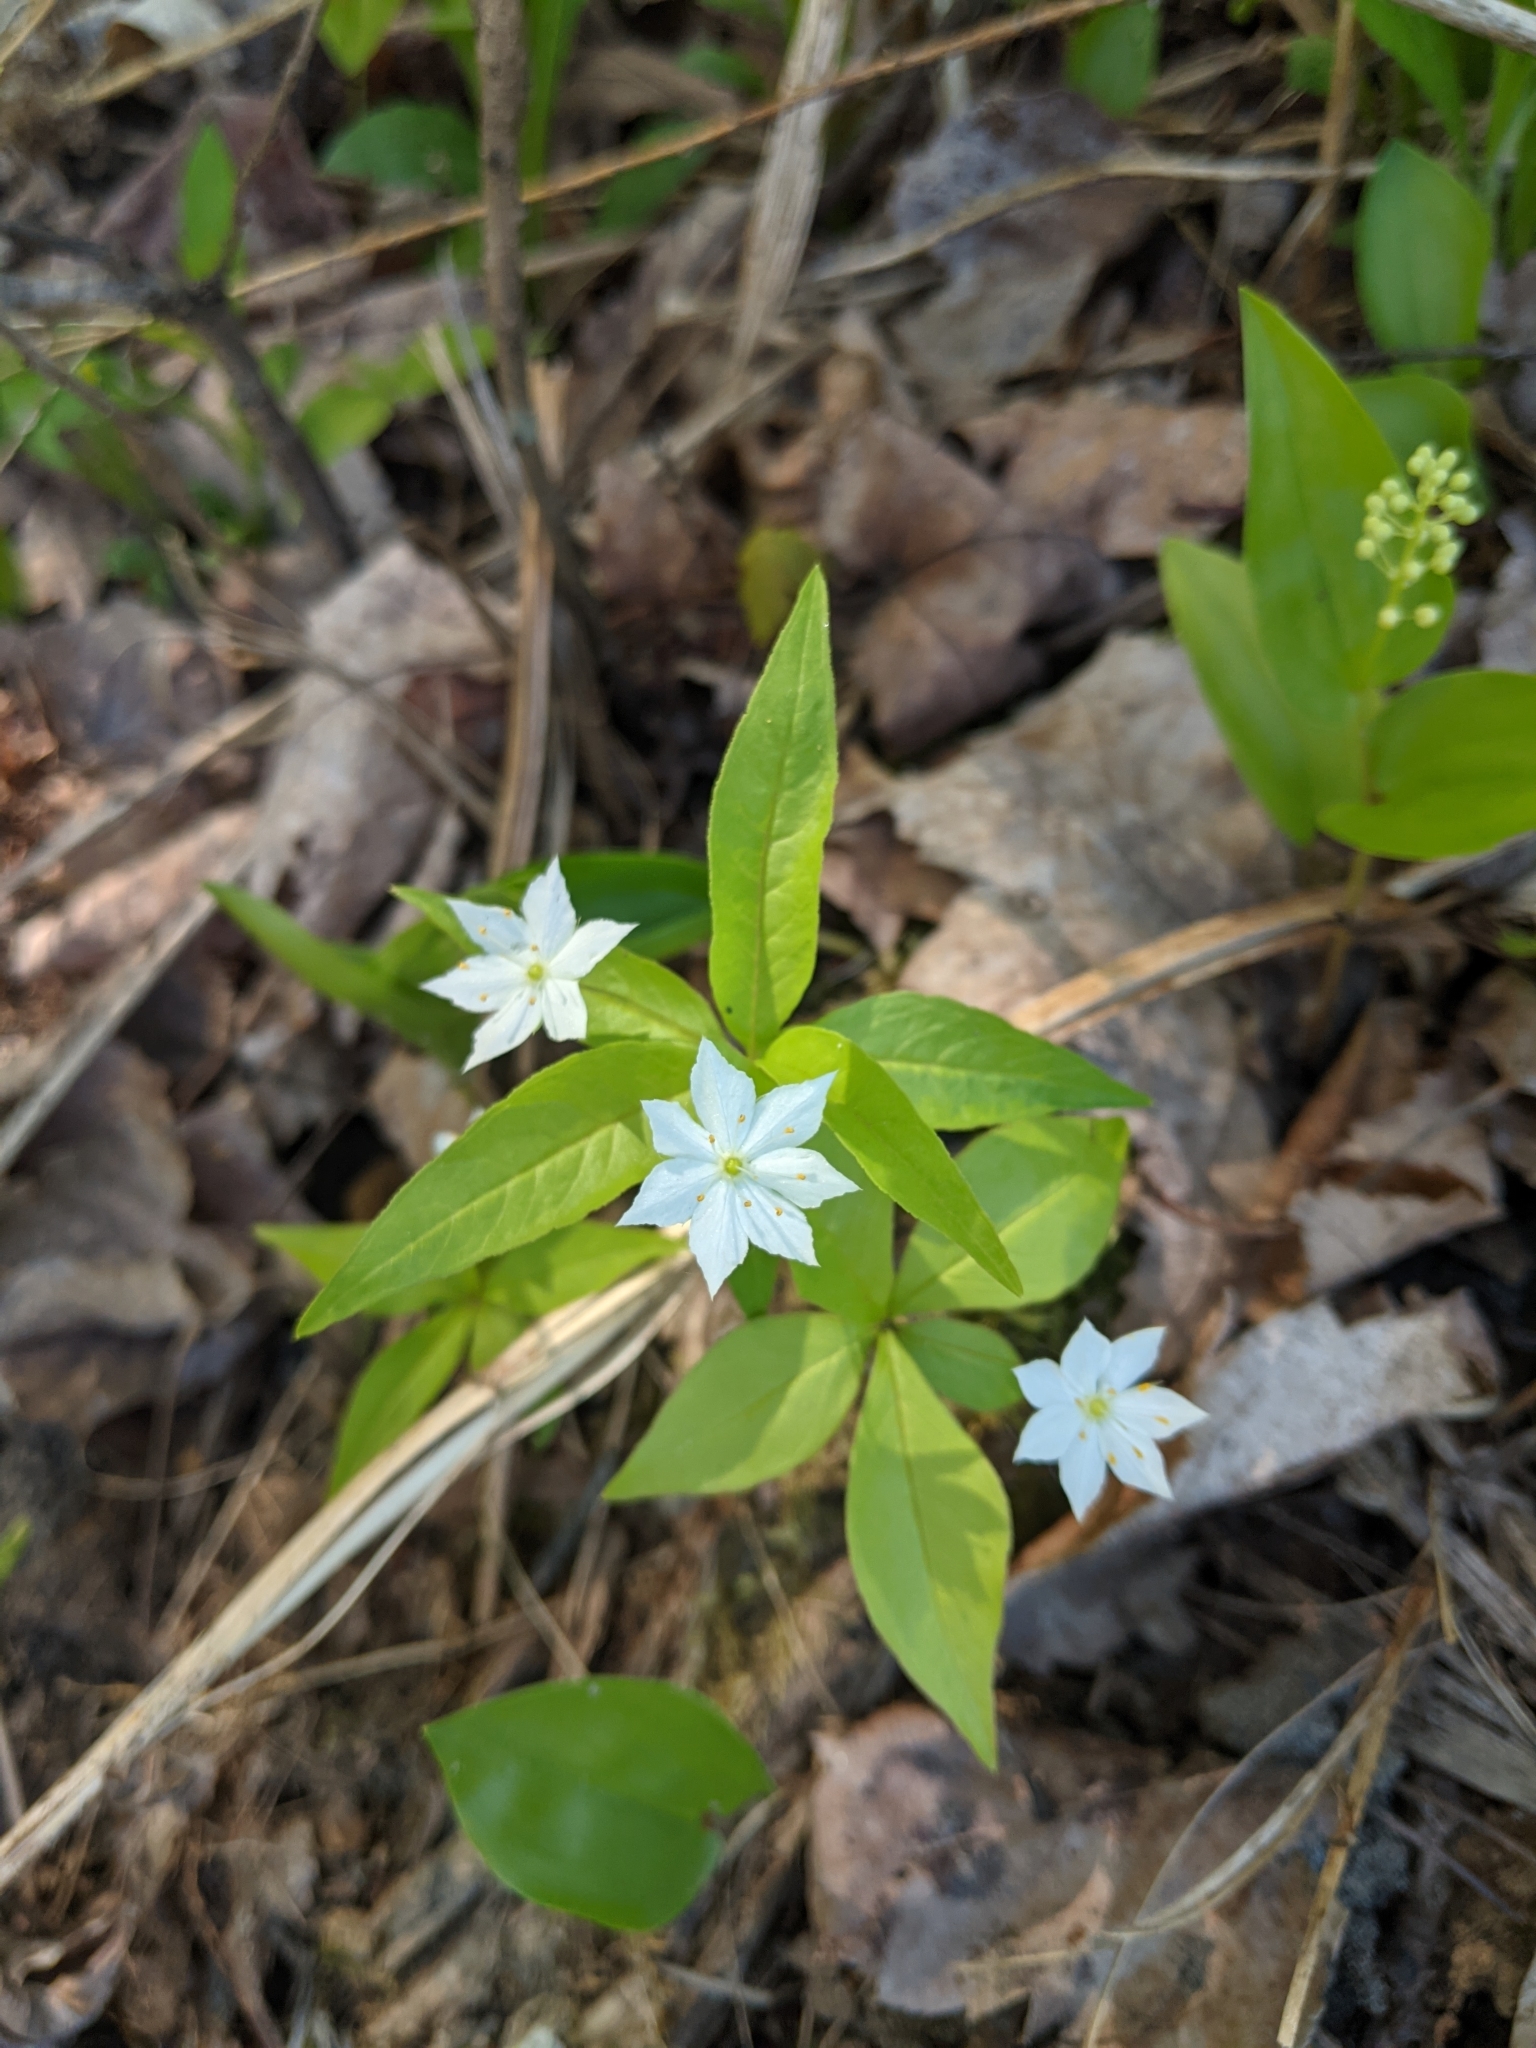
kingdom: Plantae
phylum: Tracheophyta
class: Magnoliopsida
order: Ericales
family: Primulaceae
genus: Lysimachia
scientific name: Lysimachia borealis
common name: American starflower
